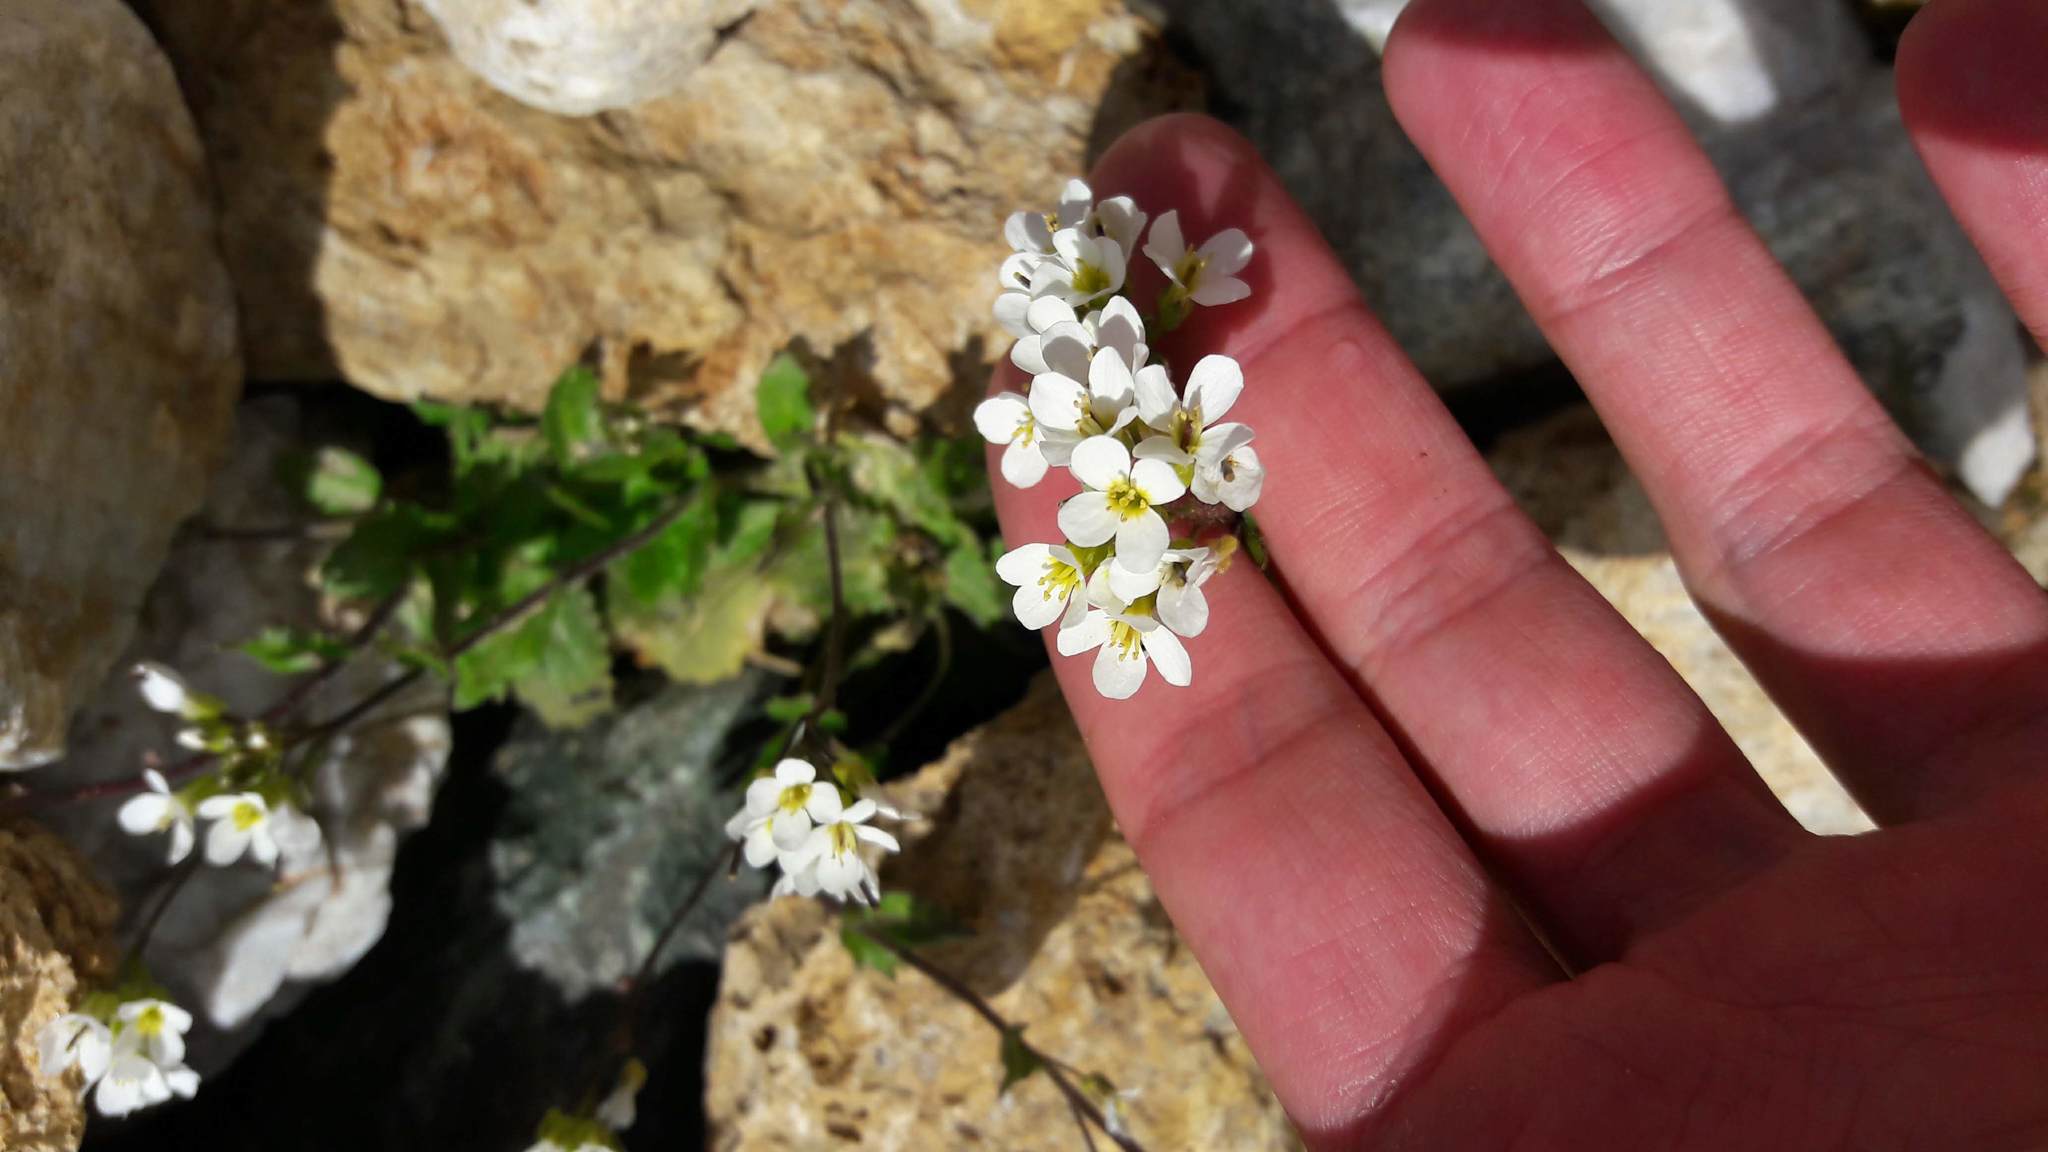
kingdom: Plantae
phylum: Tracheophyta
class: Magnoliopsida
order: Brassicales
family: Brassicaceae
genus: Arabis
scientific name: Arabis alpina
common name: Alpine rock-cress
